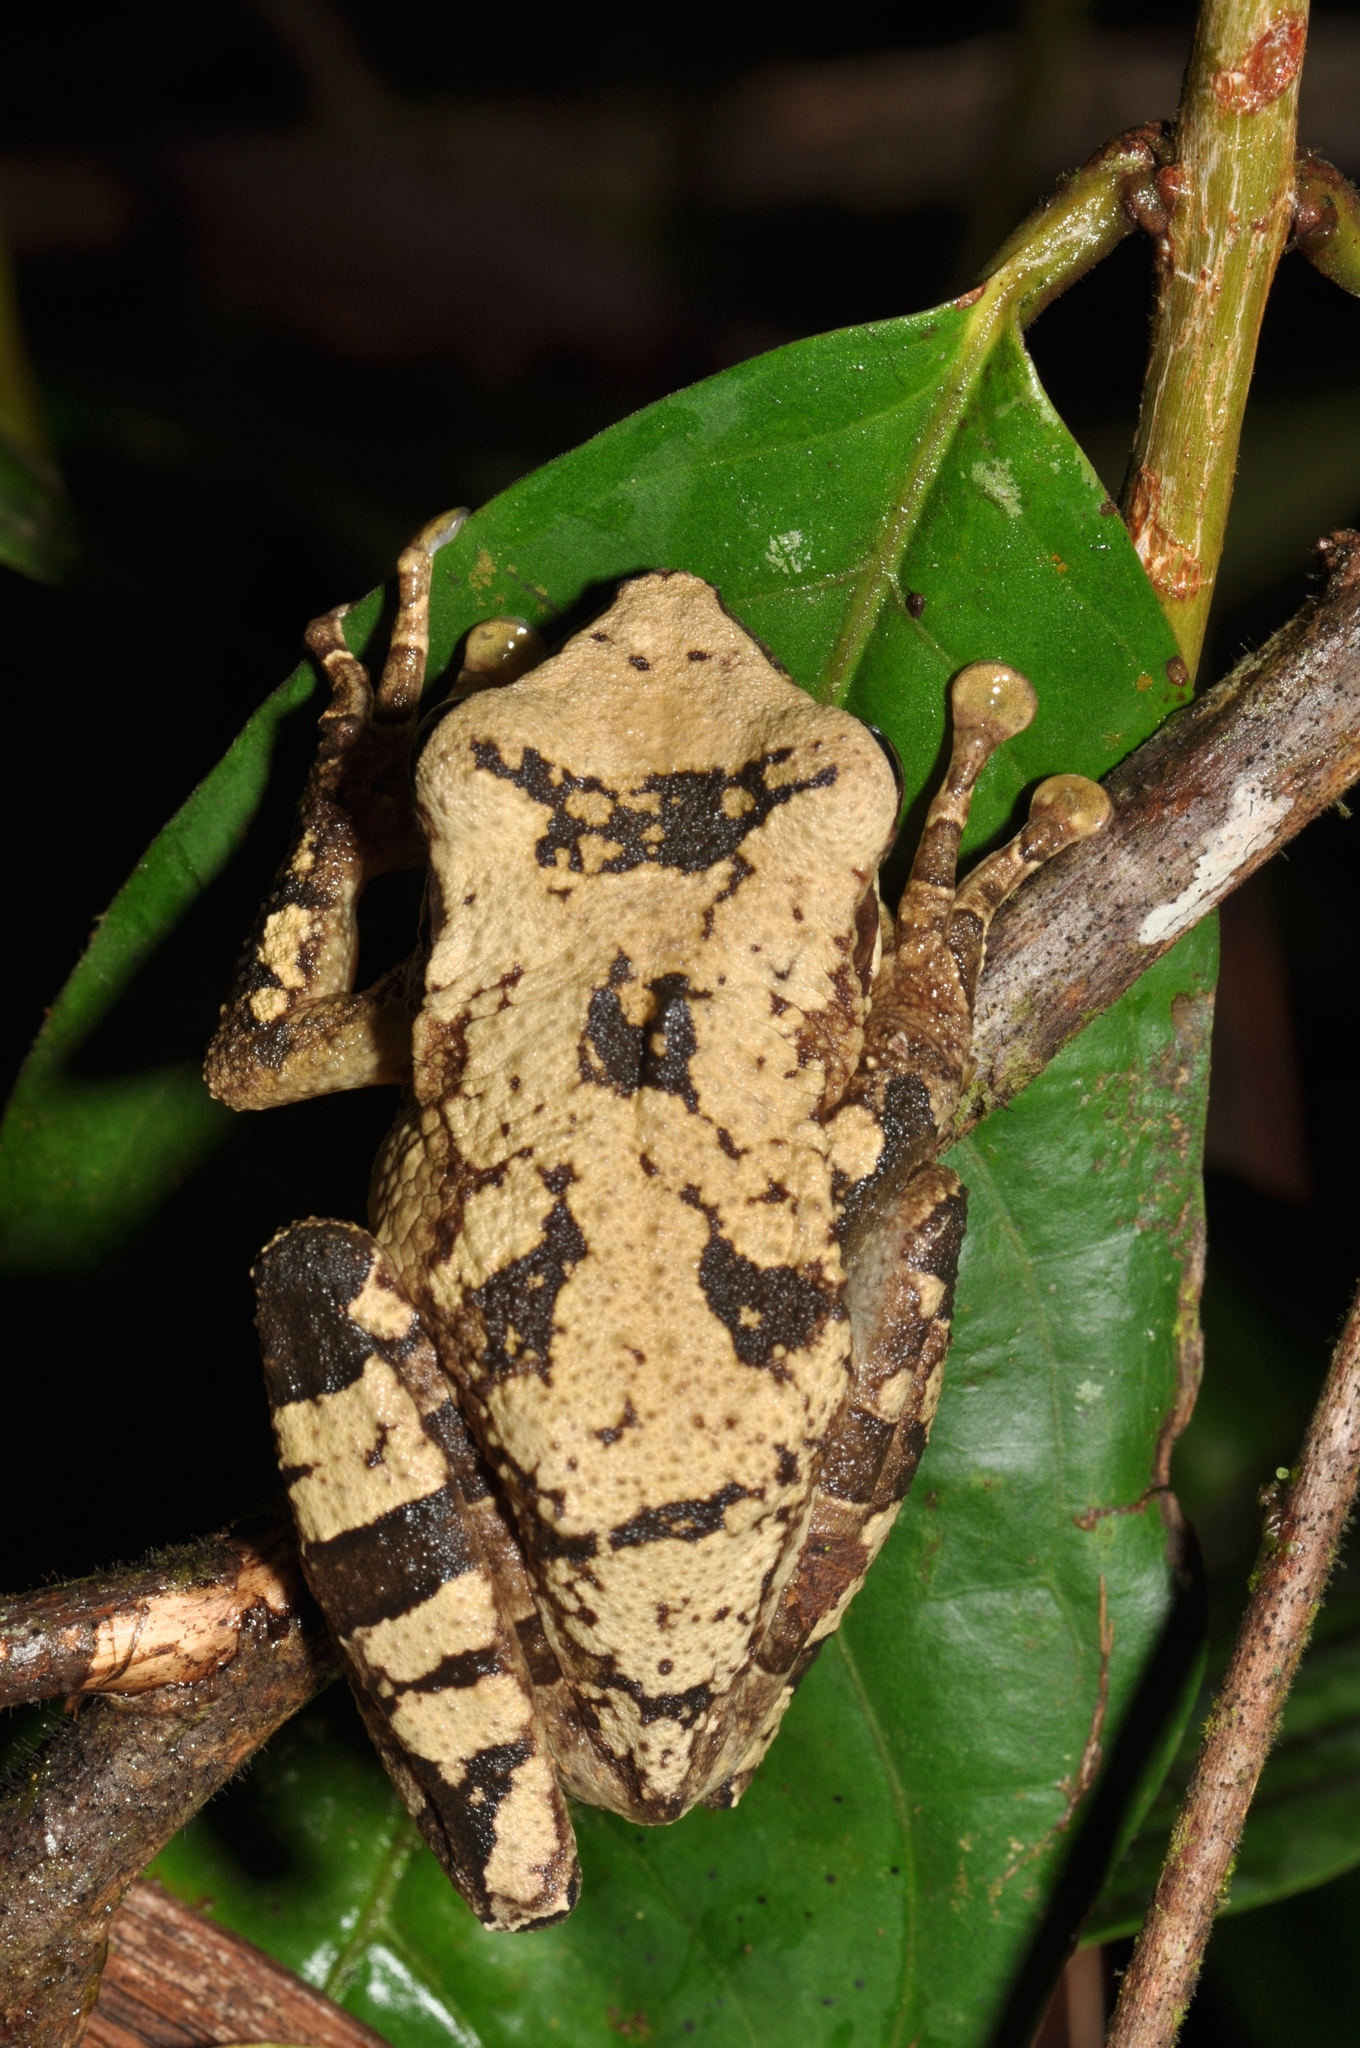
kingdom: Animalia
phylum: Chordata
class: Amphibia
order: Anura
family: Hylidae
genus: Osteocephalus
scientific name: Osteocephalus mutabor
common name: Pucuno slender-legged treefrog
